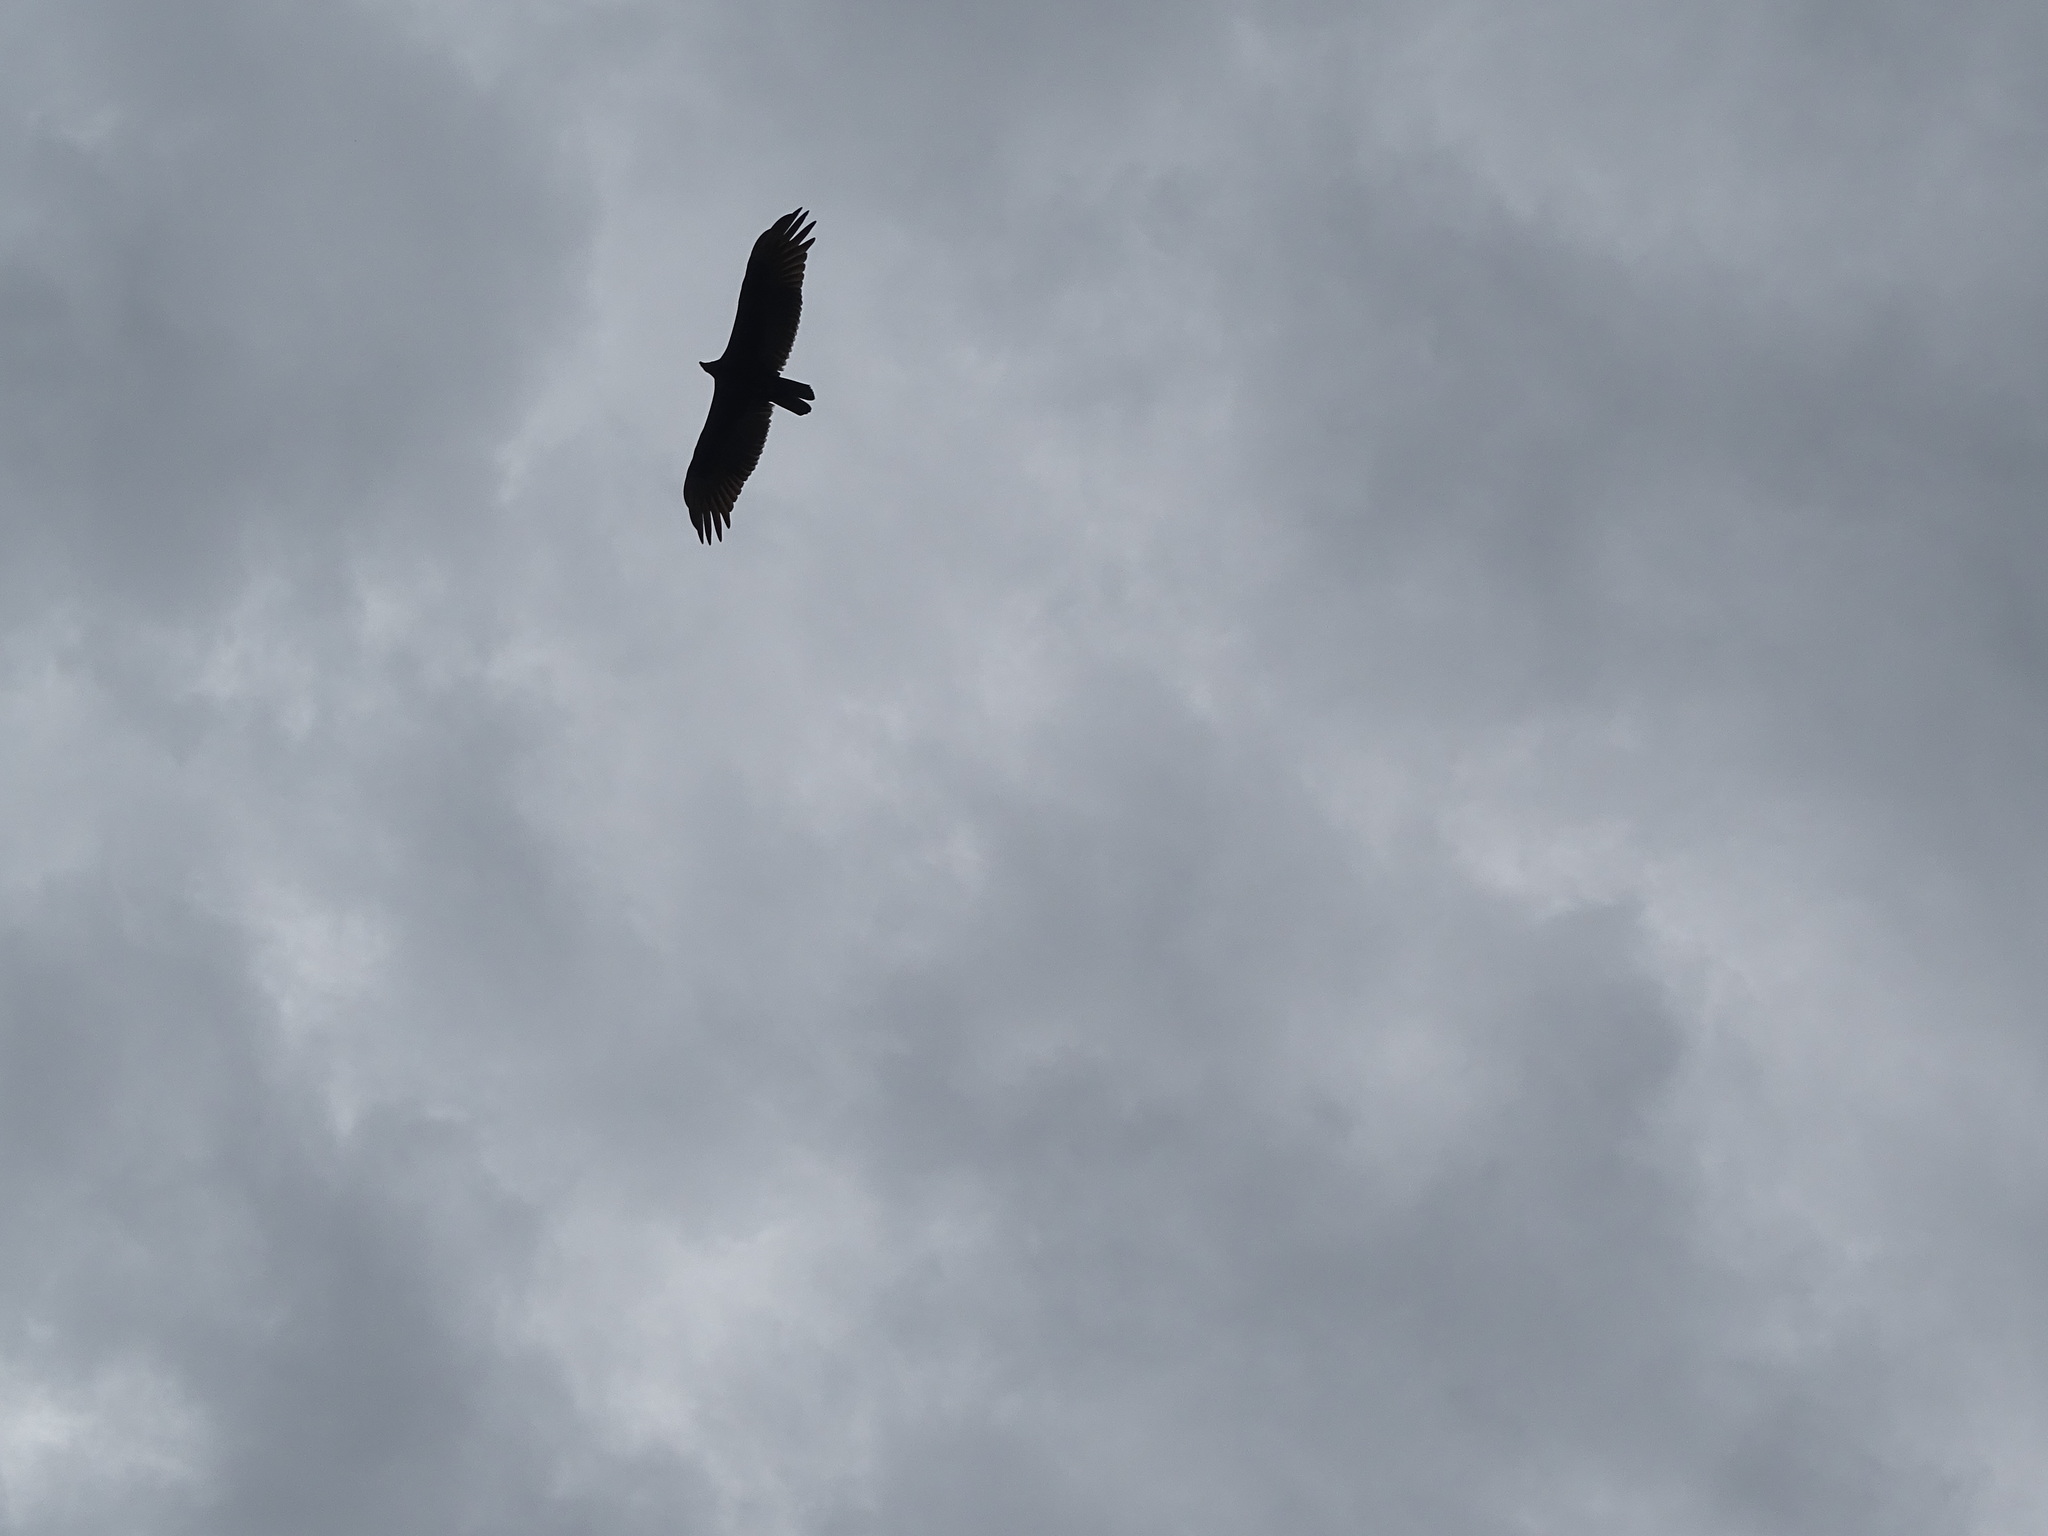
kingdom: Animalia
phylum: Chordata
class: Aves
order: Accipitriformes
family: Cathartidae
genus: Cathartes
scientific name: Cathartes aura
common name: Turkey vulture
